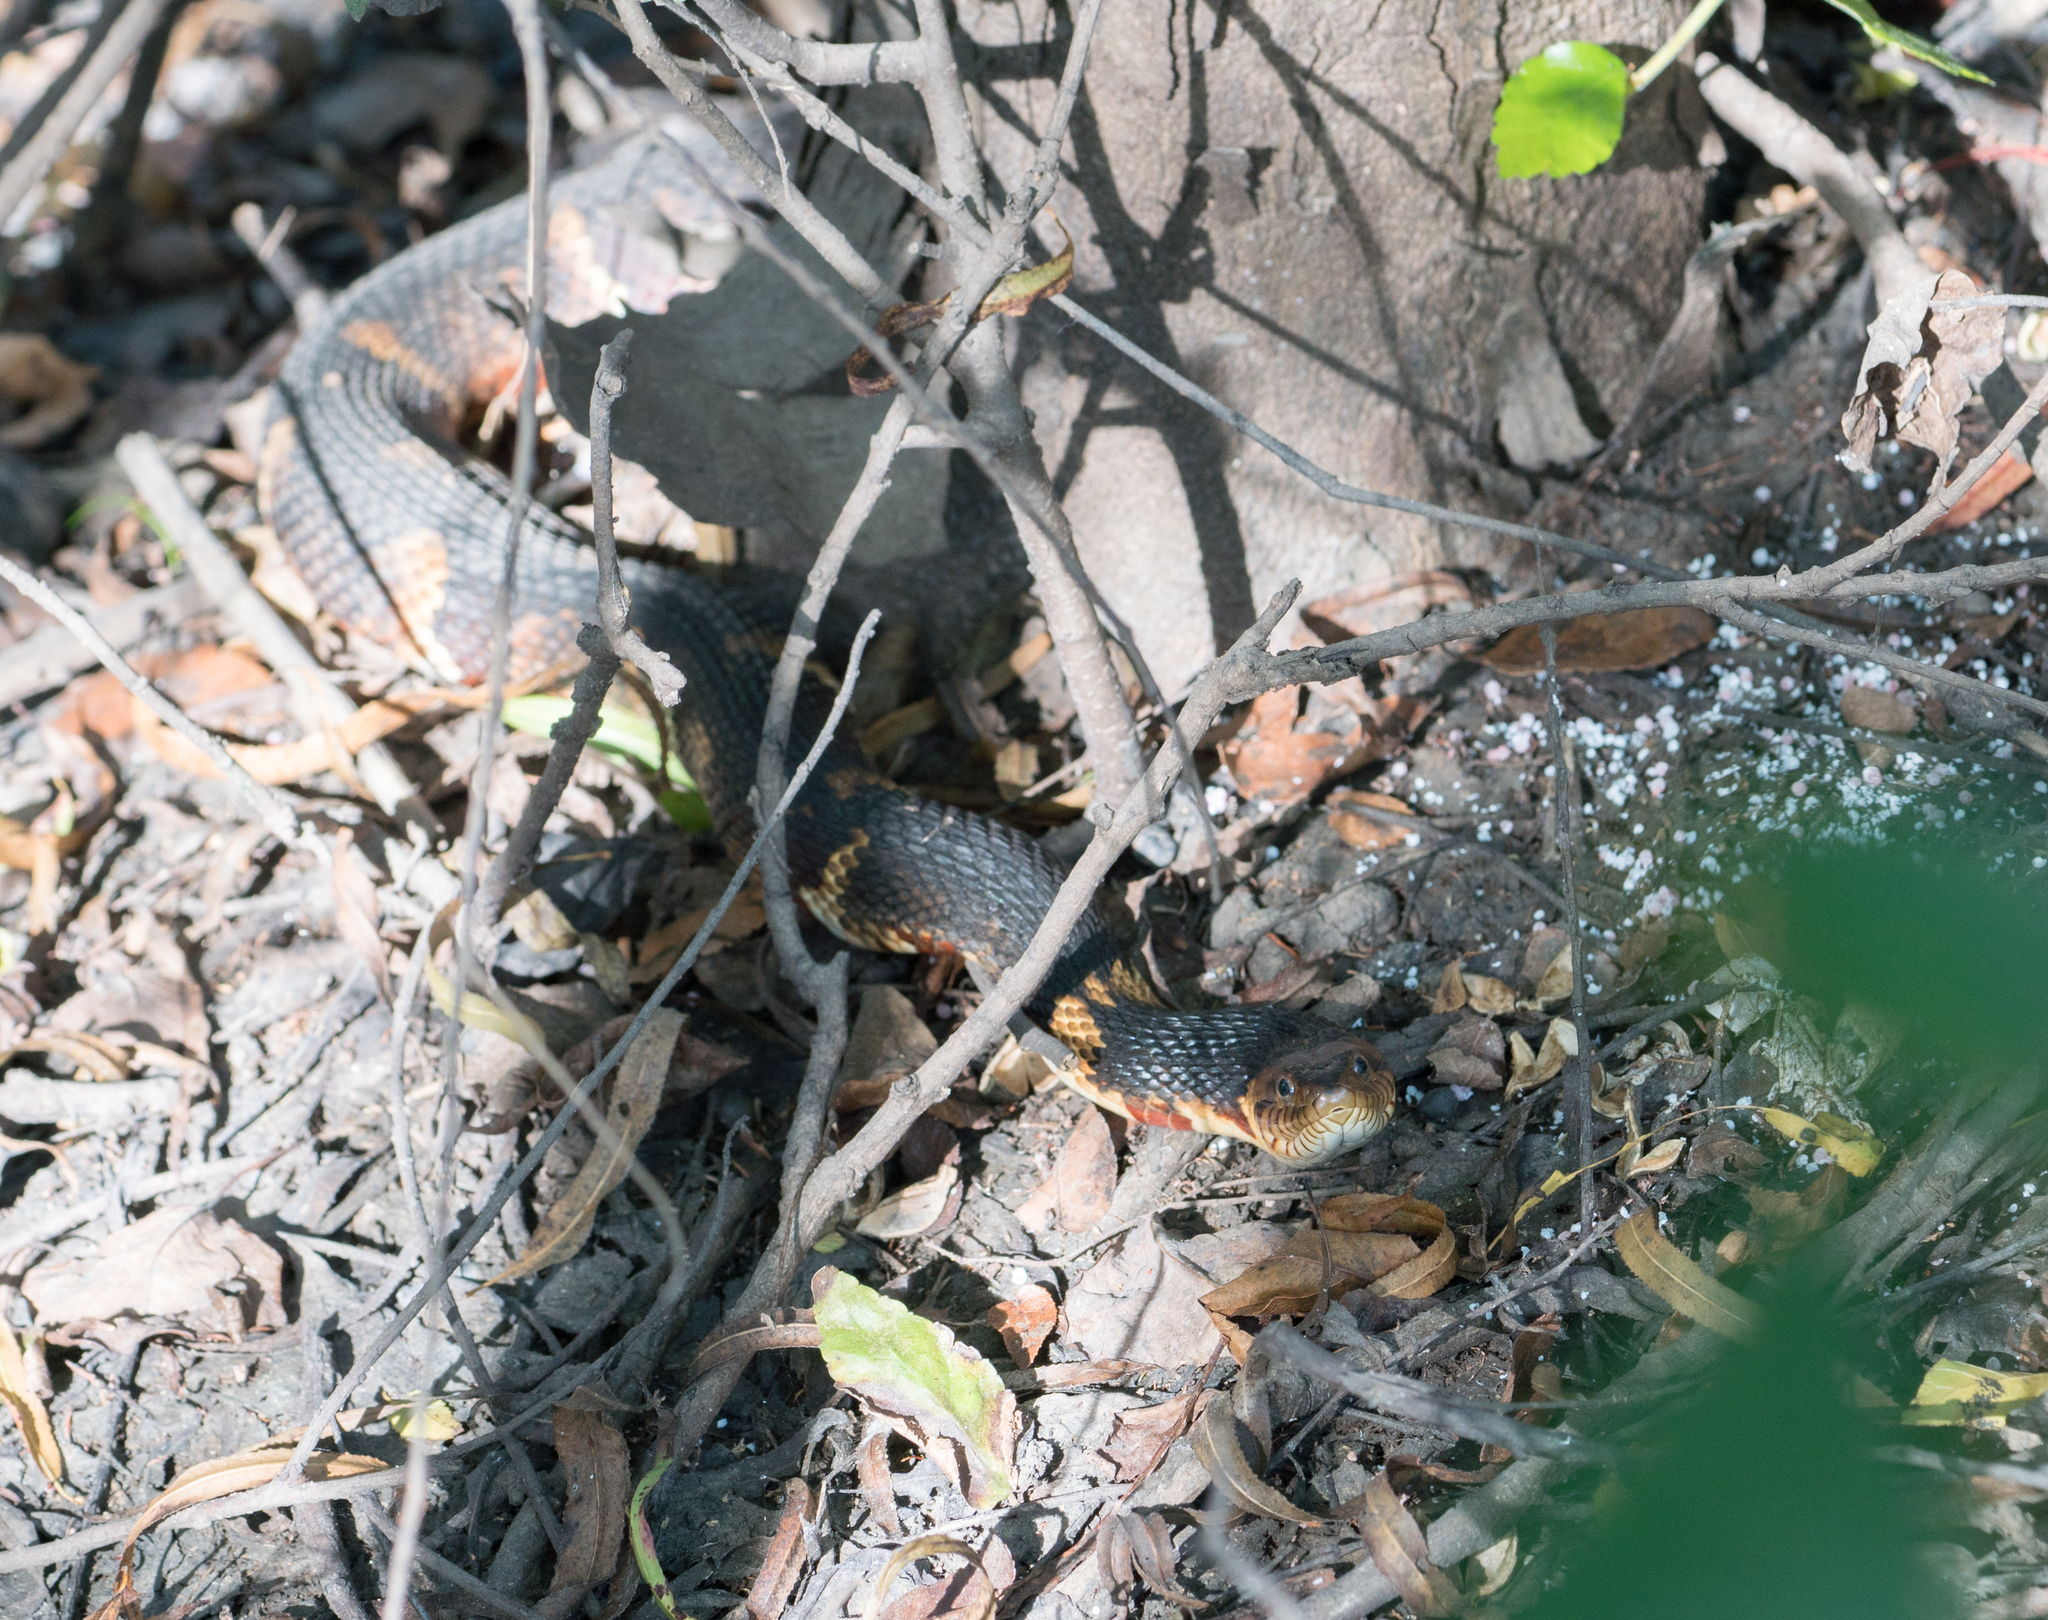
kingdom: Animalia
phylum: Chordata
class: Squamata
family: Colubridae
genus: Nerodia
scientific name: Nerodia fasciata
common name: Southern water snake
